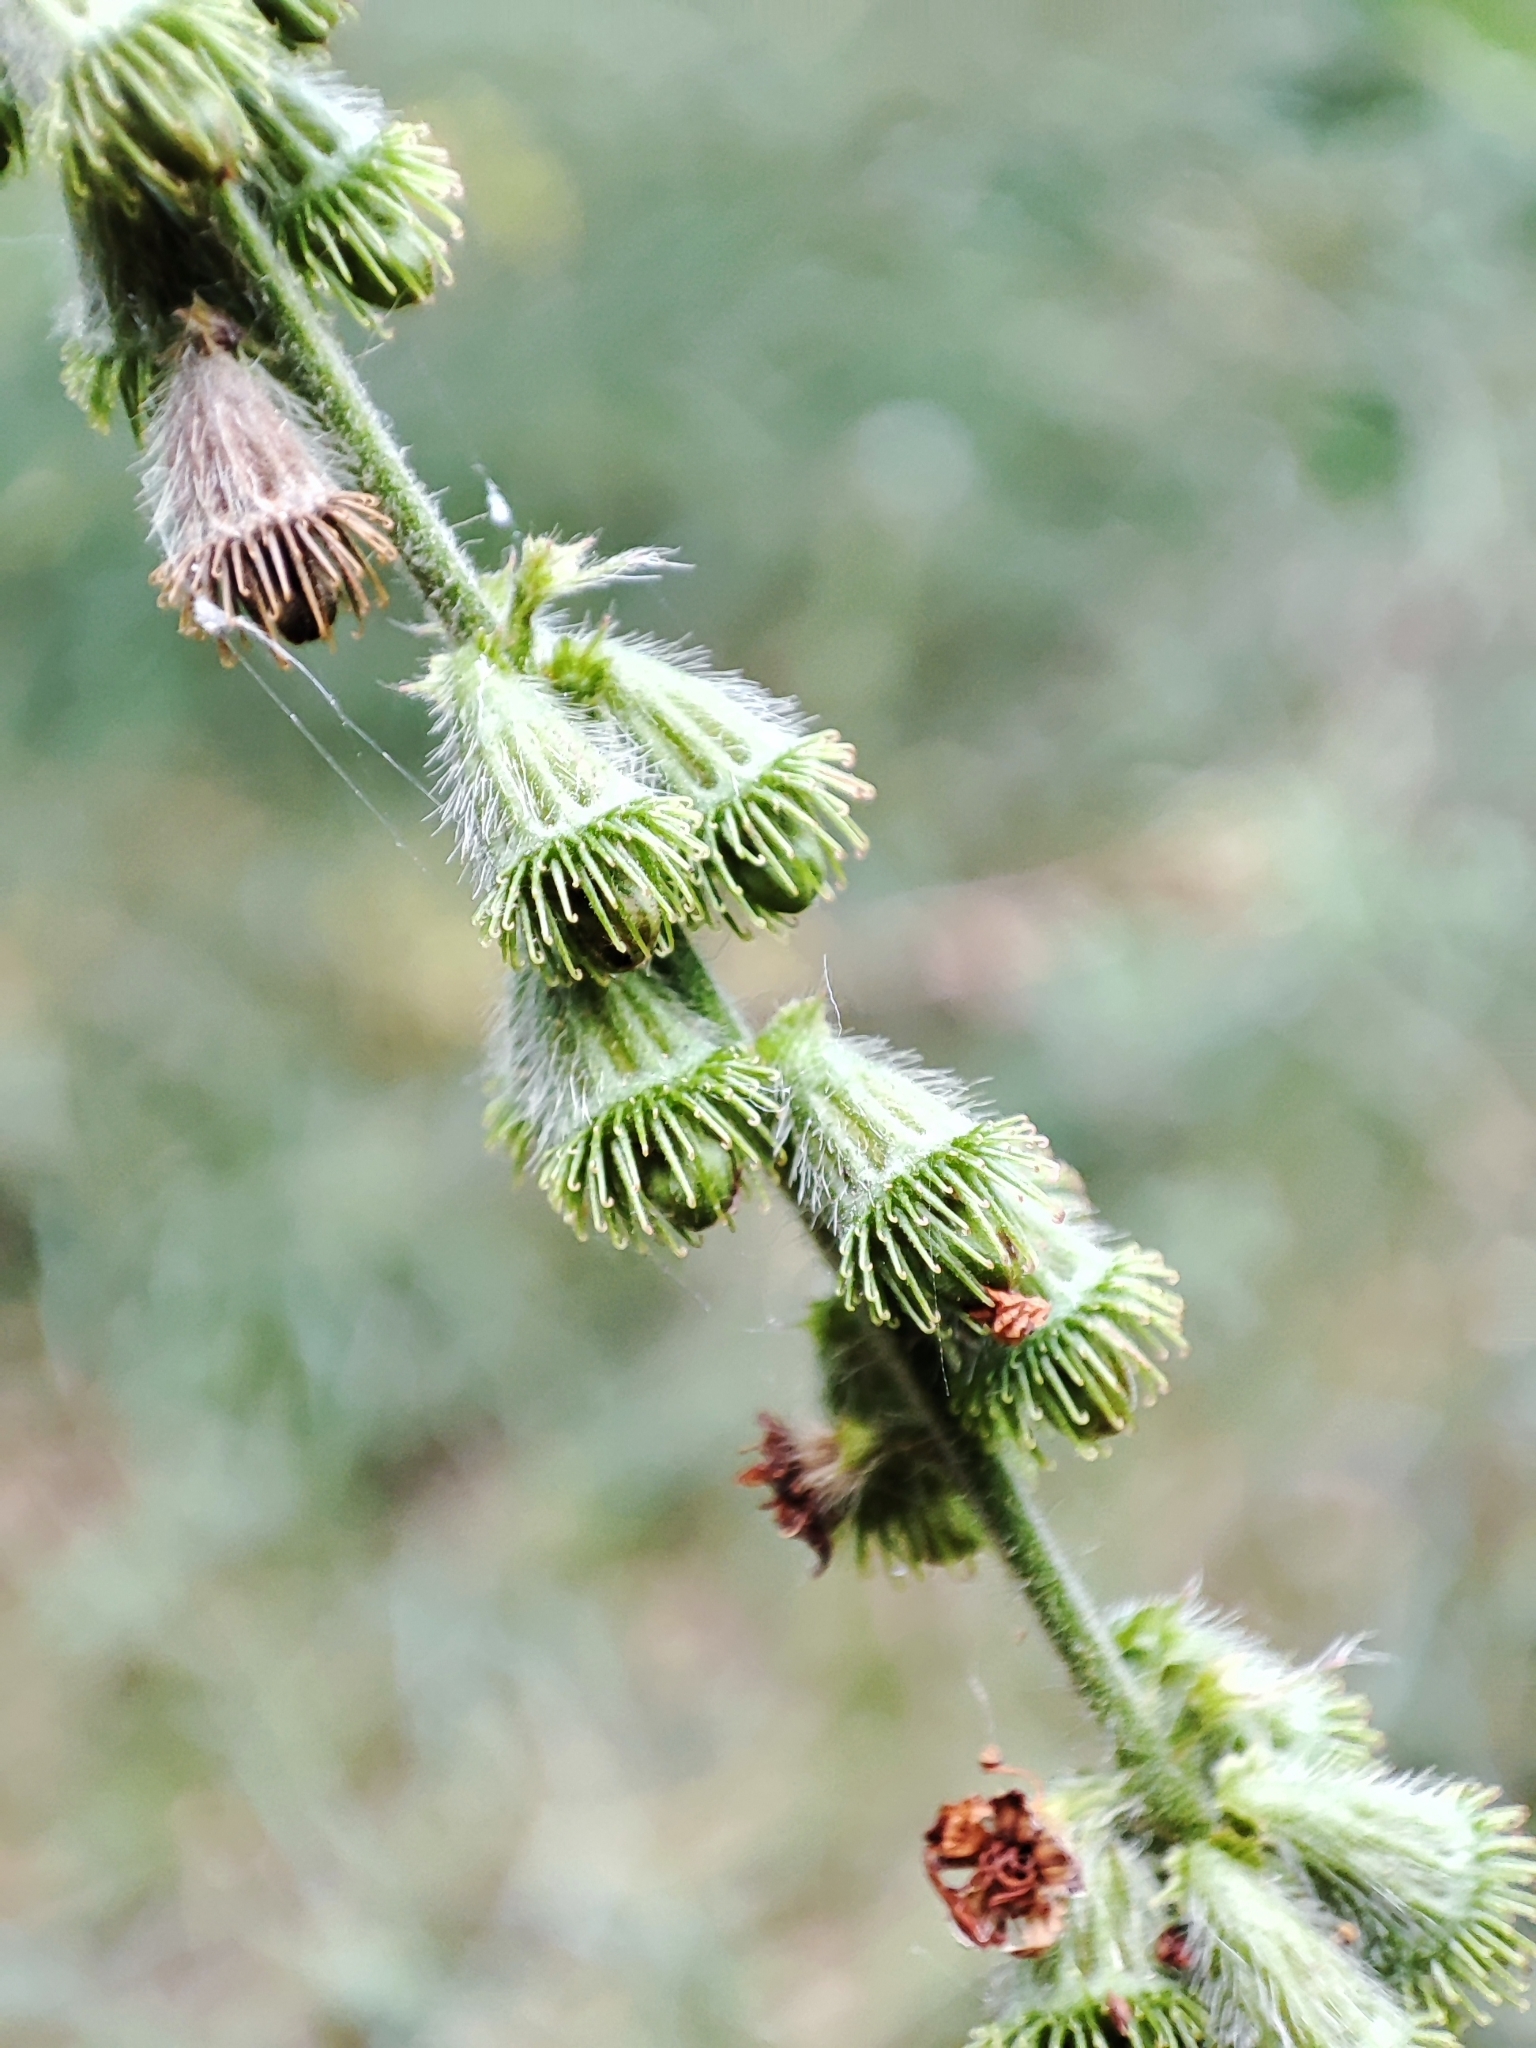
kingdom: Plantae
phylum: Tracheophyta
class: Magnoliopsida
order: Rosales
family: Rosaceae
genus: Agrimonia
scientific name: Agrimonia eupatoria
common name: Agrimony
